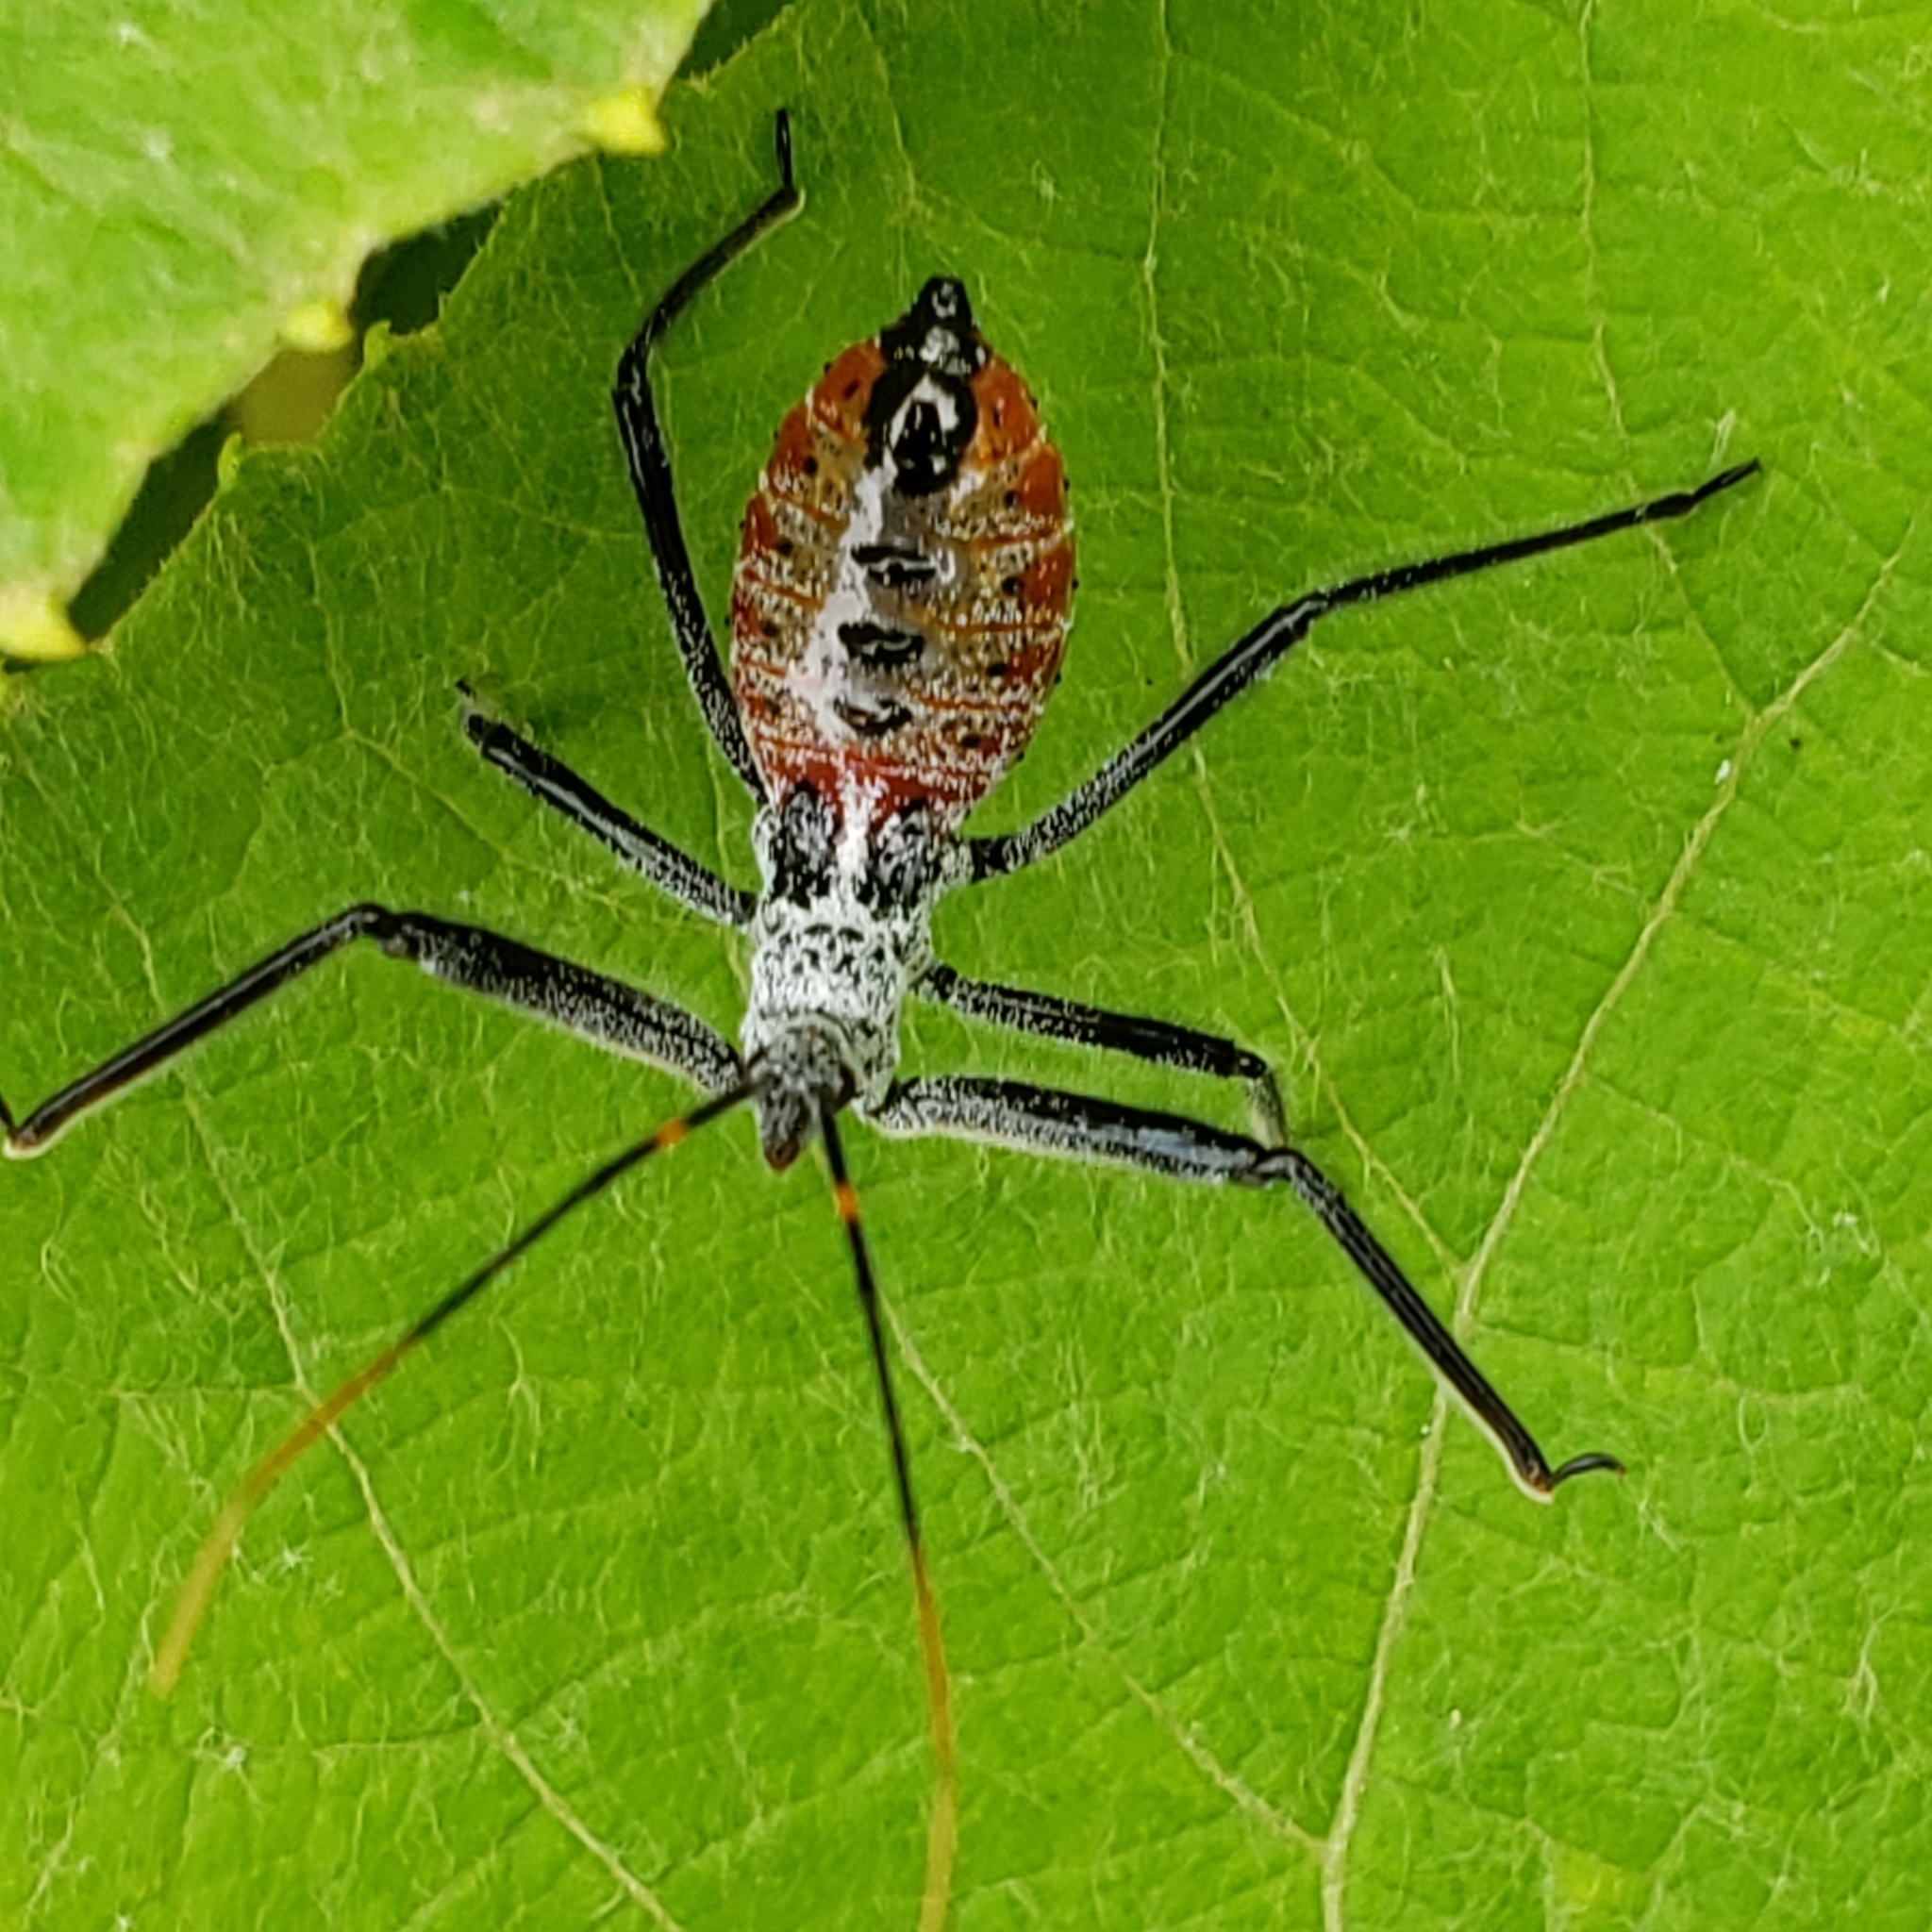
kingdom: Animalia
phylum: Arthropoda
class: Insecta
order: Hemiptera
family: Reduviidae
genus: Arilus
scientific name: Arilus cristatus
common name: North american wheel bug
